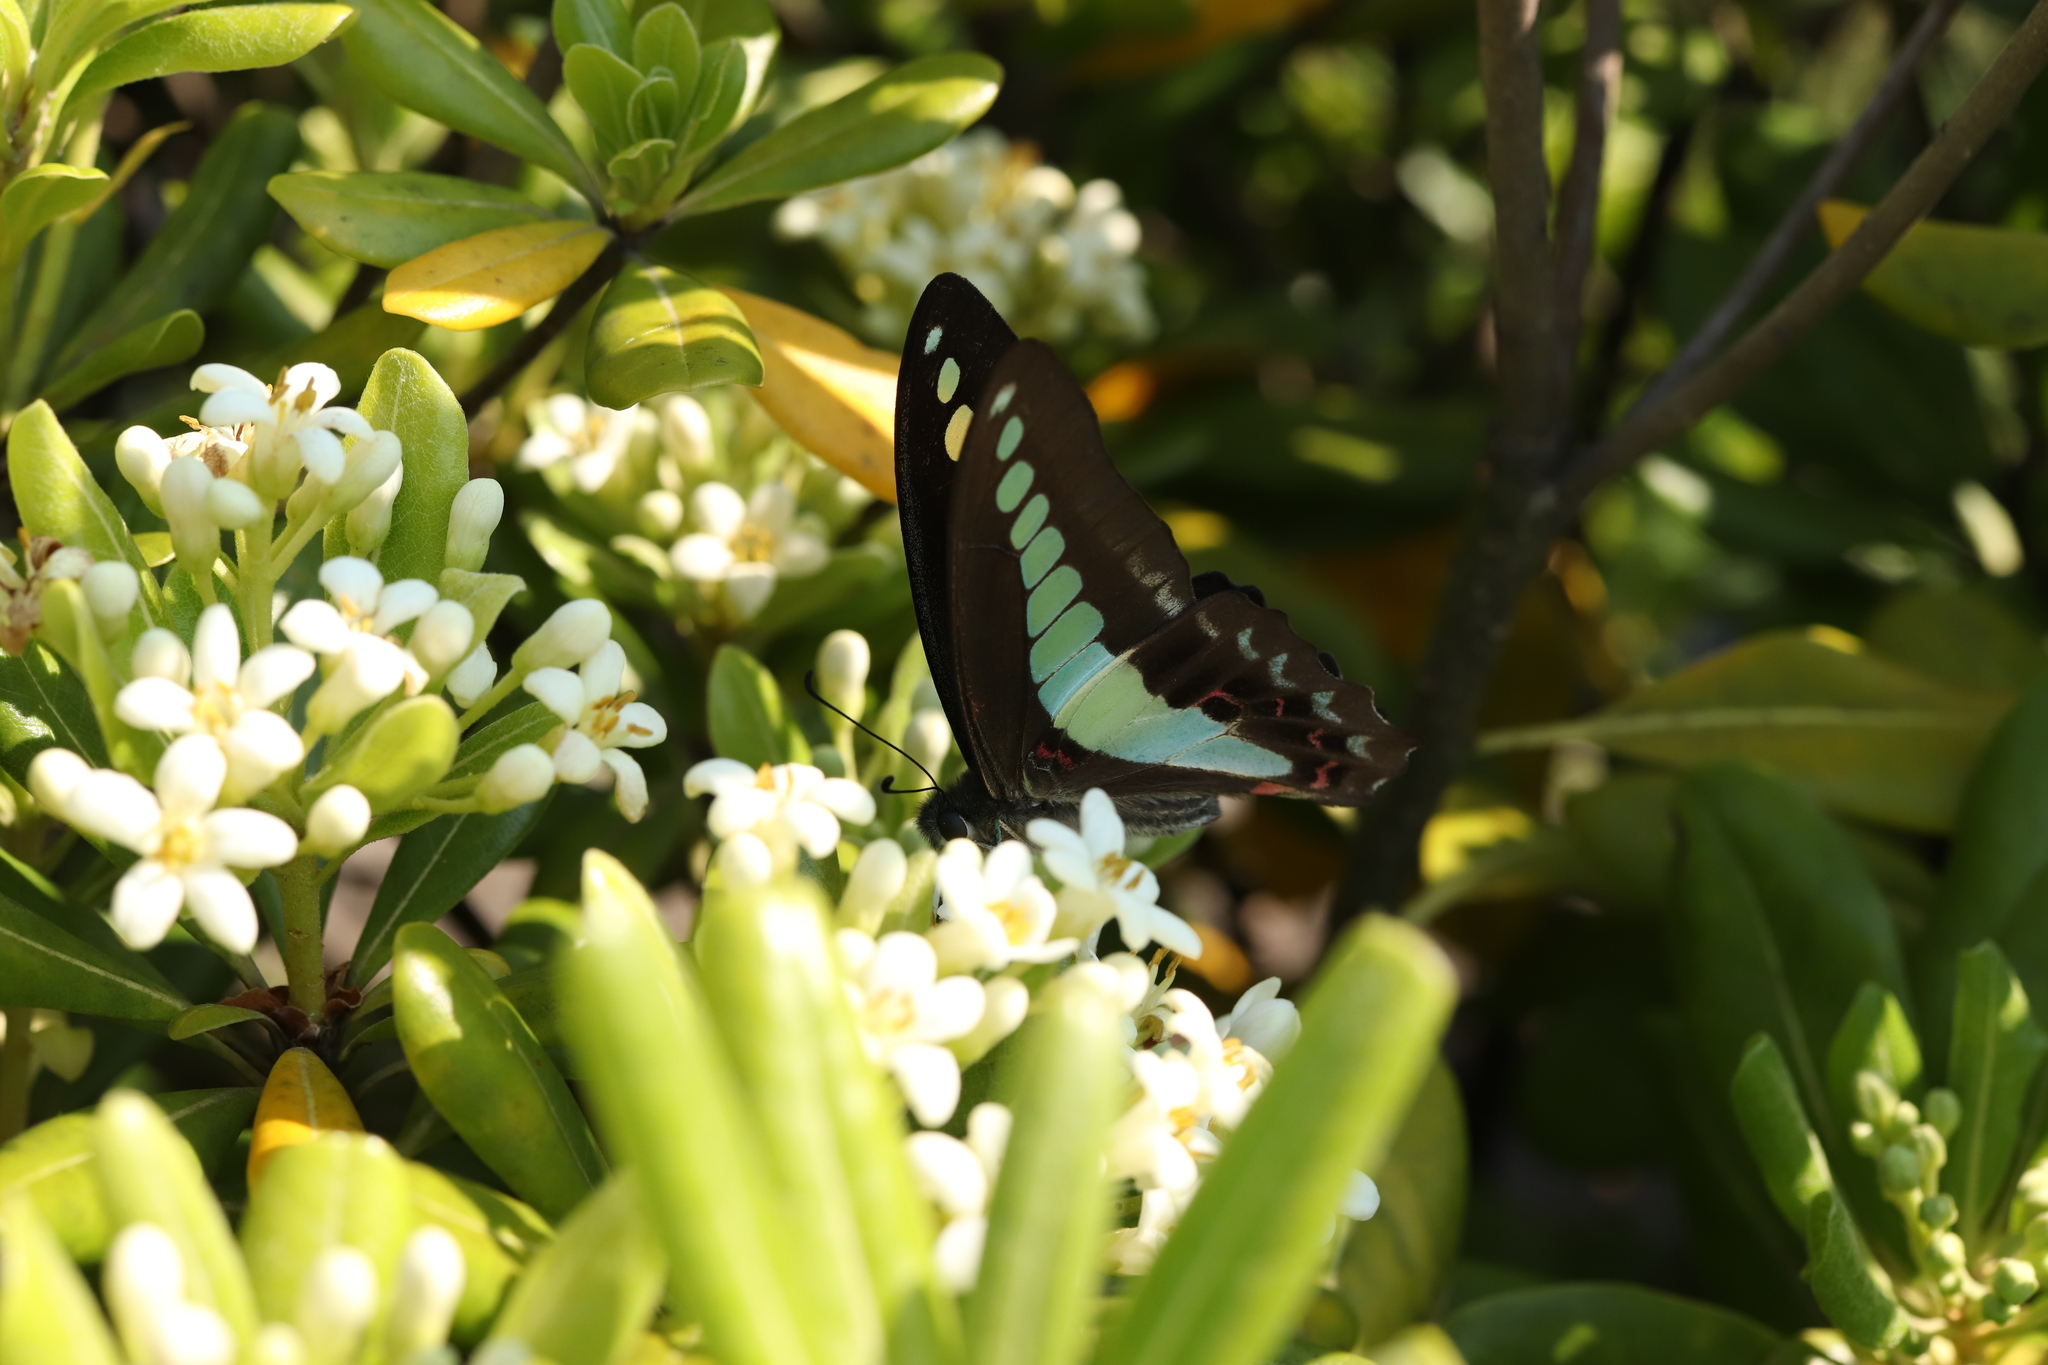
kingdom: Fungi
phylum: Ascomycota
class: Sordariomycetes
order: Microascales
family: Microascaceae
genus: Graphium
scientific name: Graphium sarpedon
